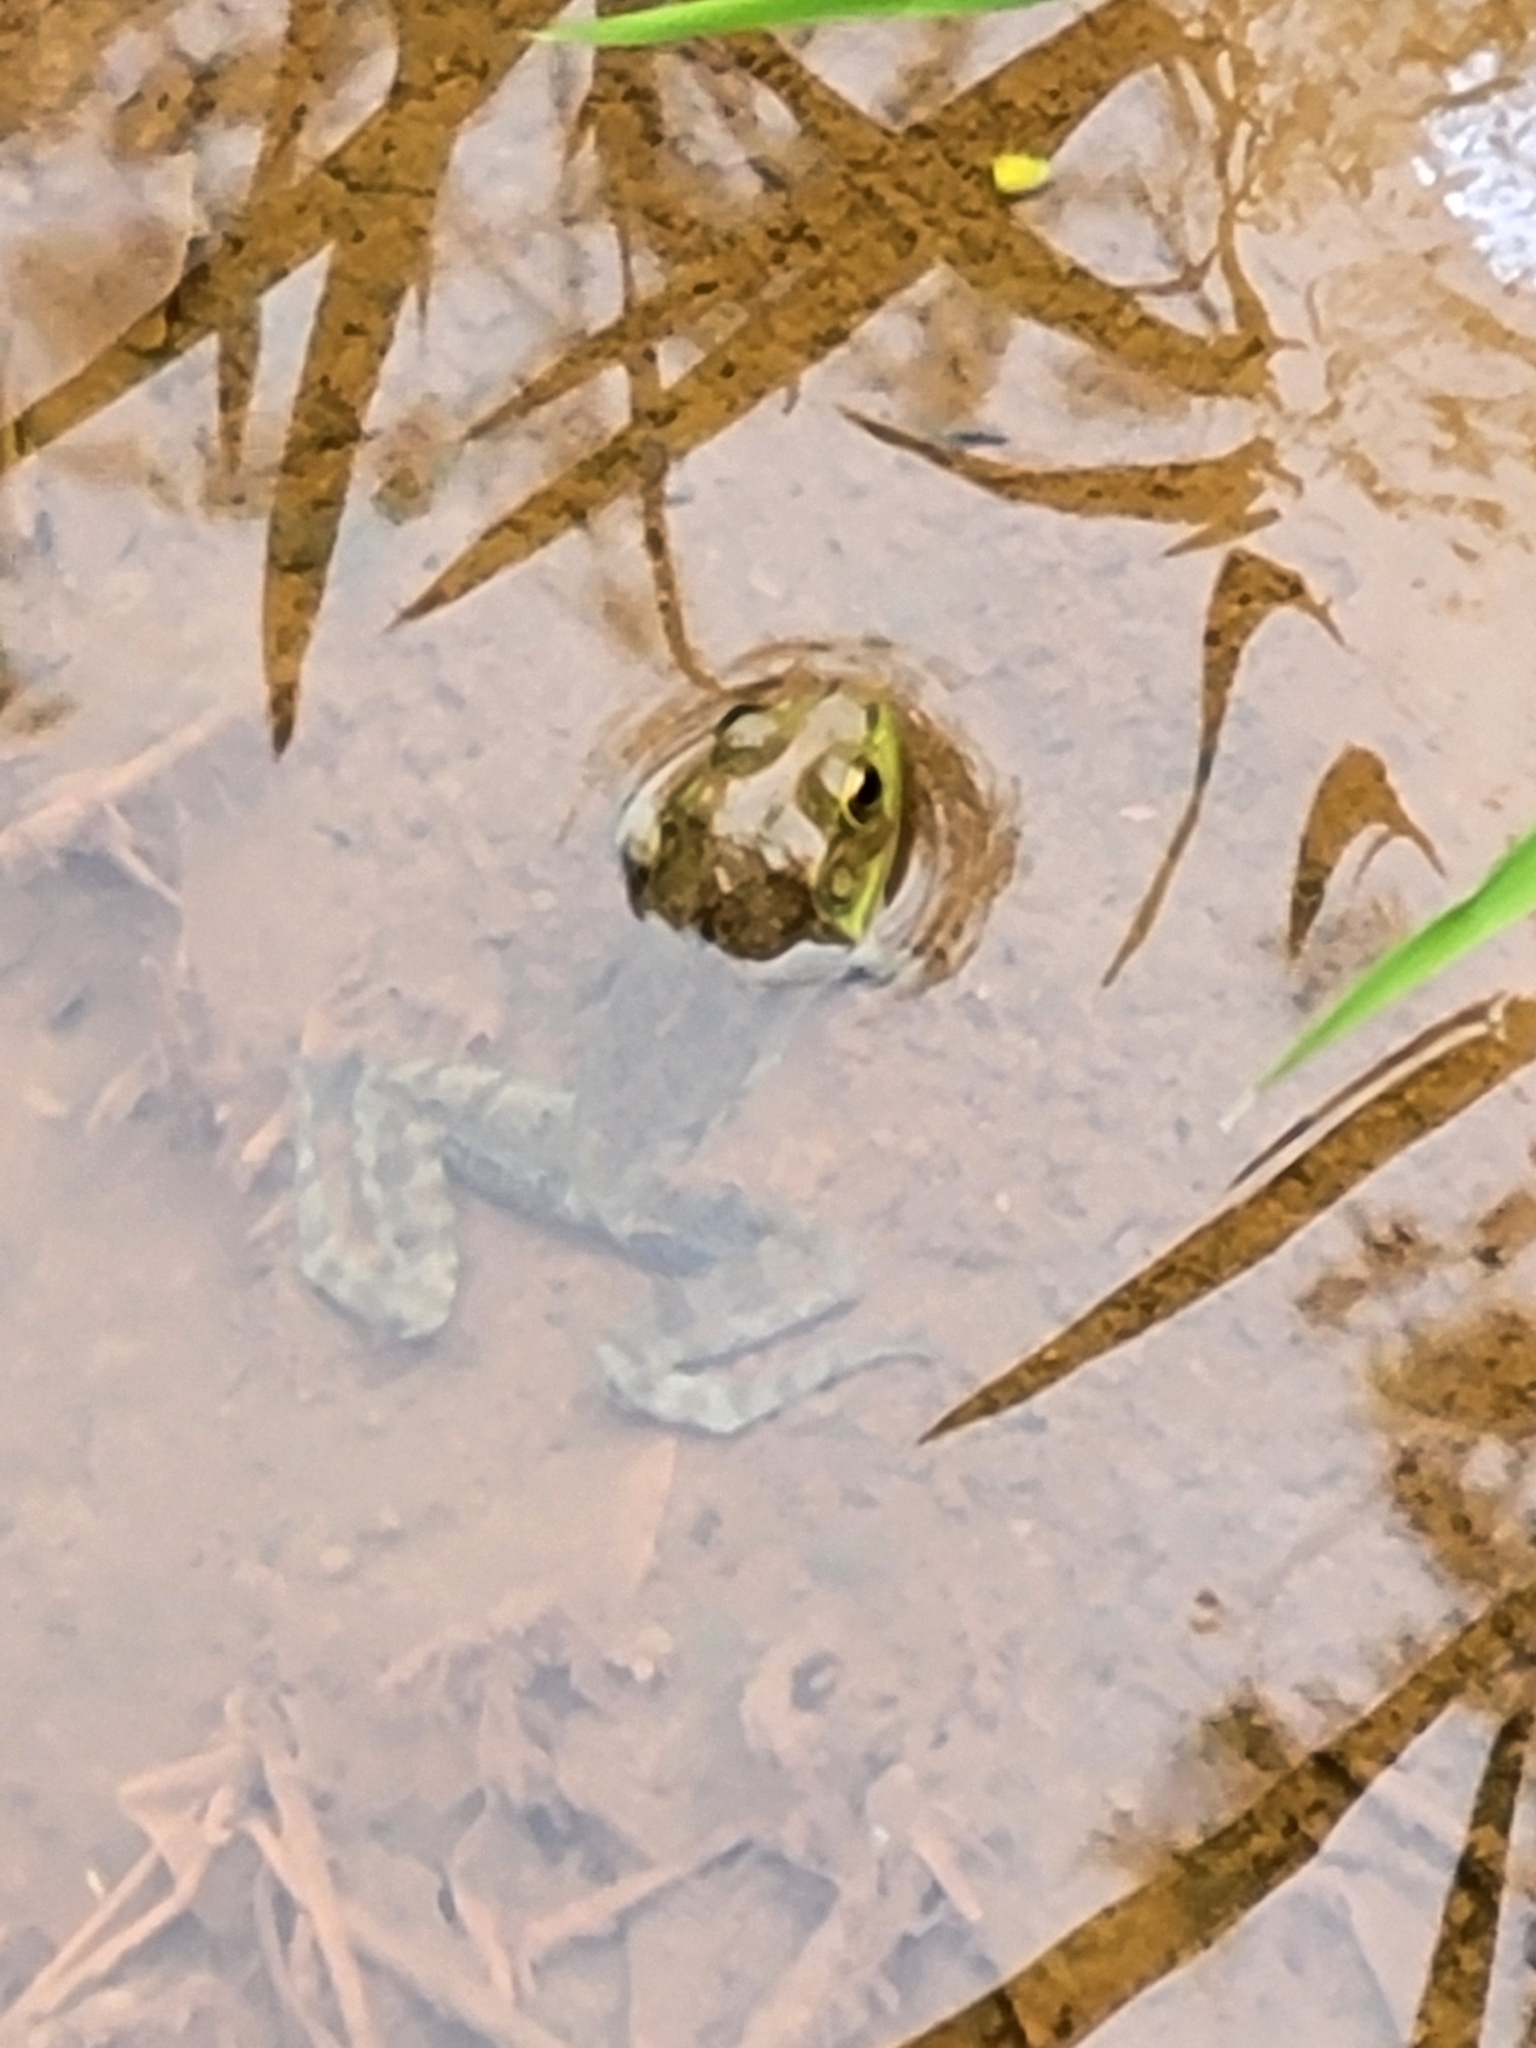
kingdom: Animalia
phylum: Chordata
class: Amphibia
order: Anura
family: Ranidae
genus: Lithobates
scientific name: Lithobates catesbeianus
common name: American bullfrog
